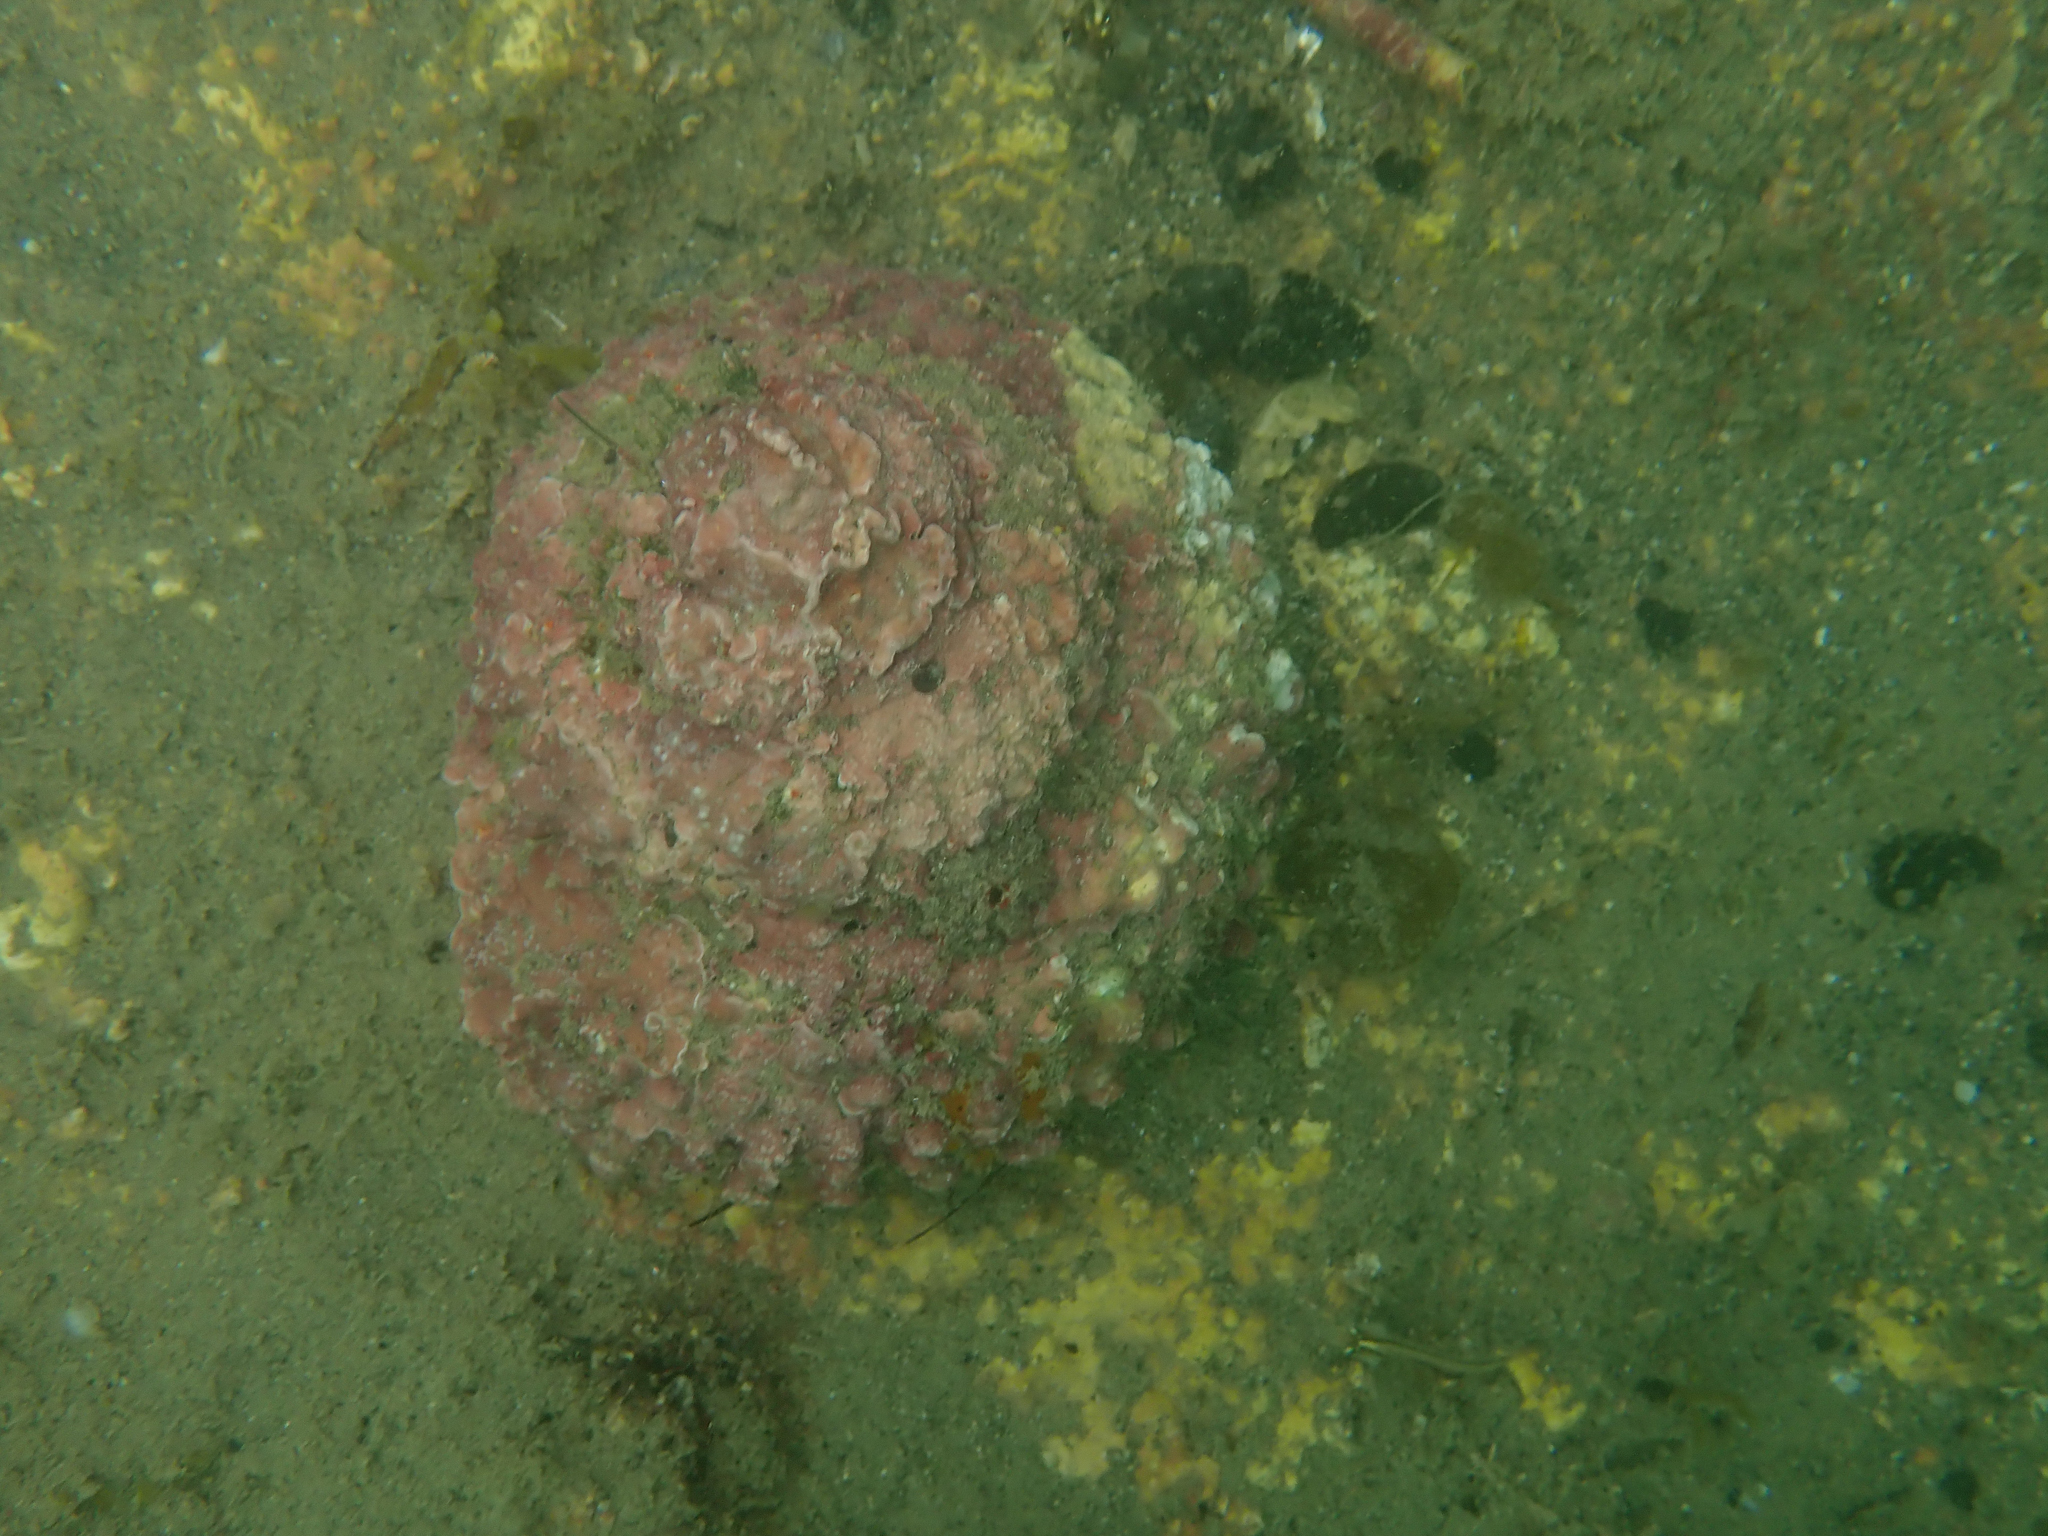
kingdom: Animalia
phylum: Mollusca
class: Gastropoda
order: Trochida
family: Turbinidae
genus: Cookia
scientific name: Cookia sulcata
